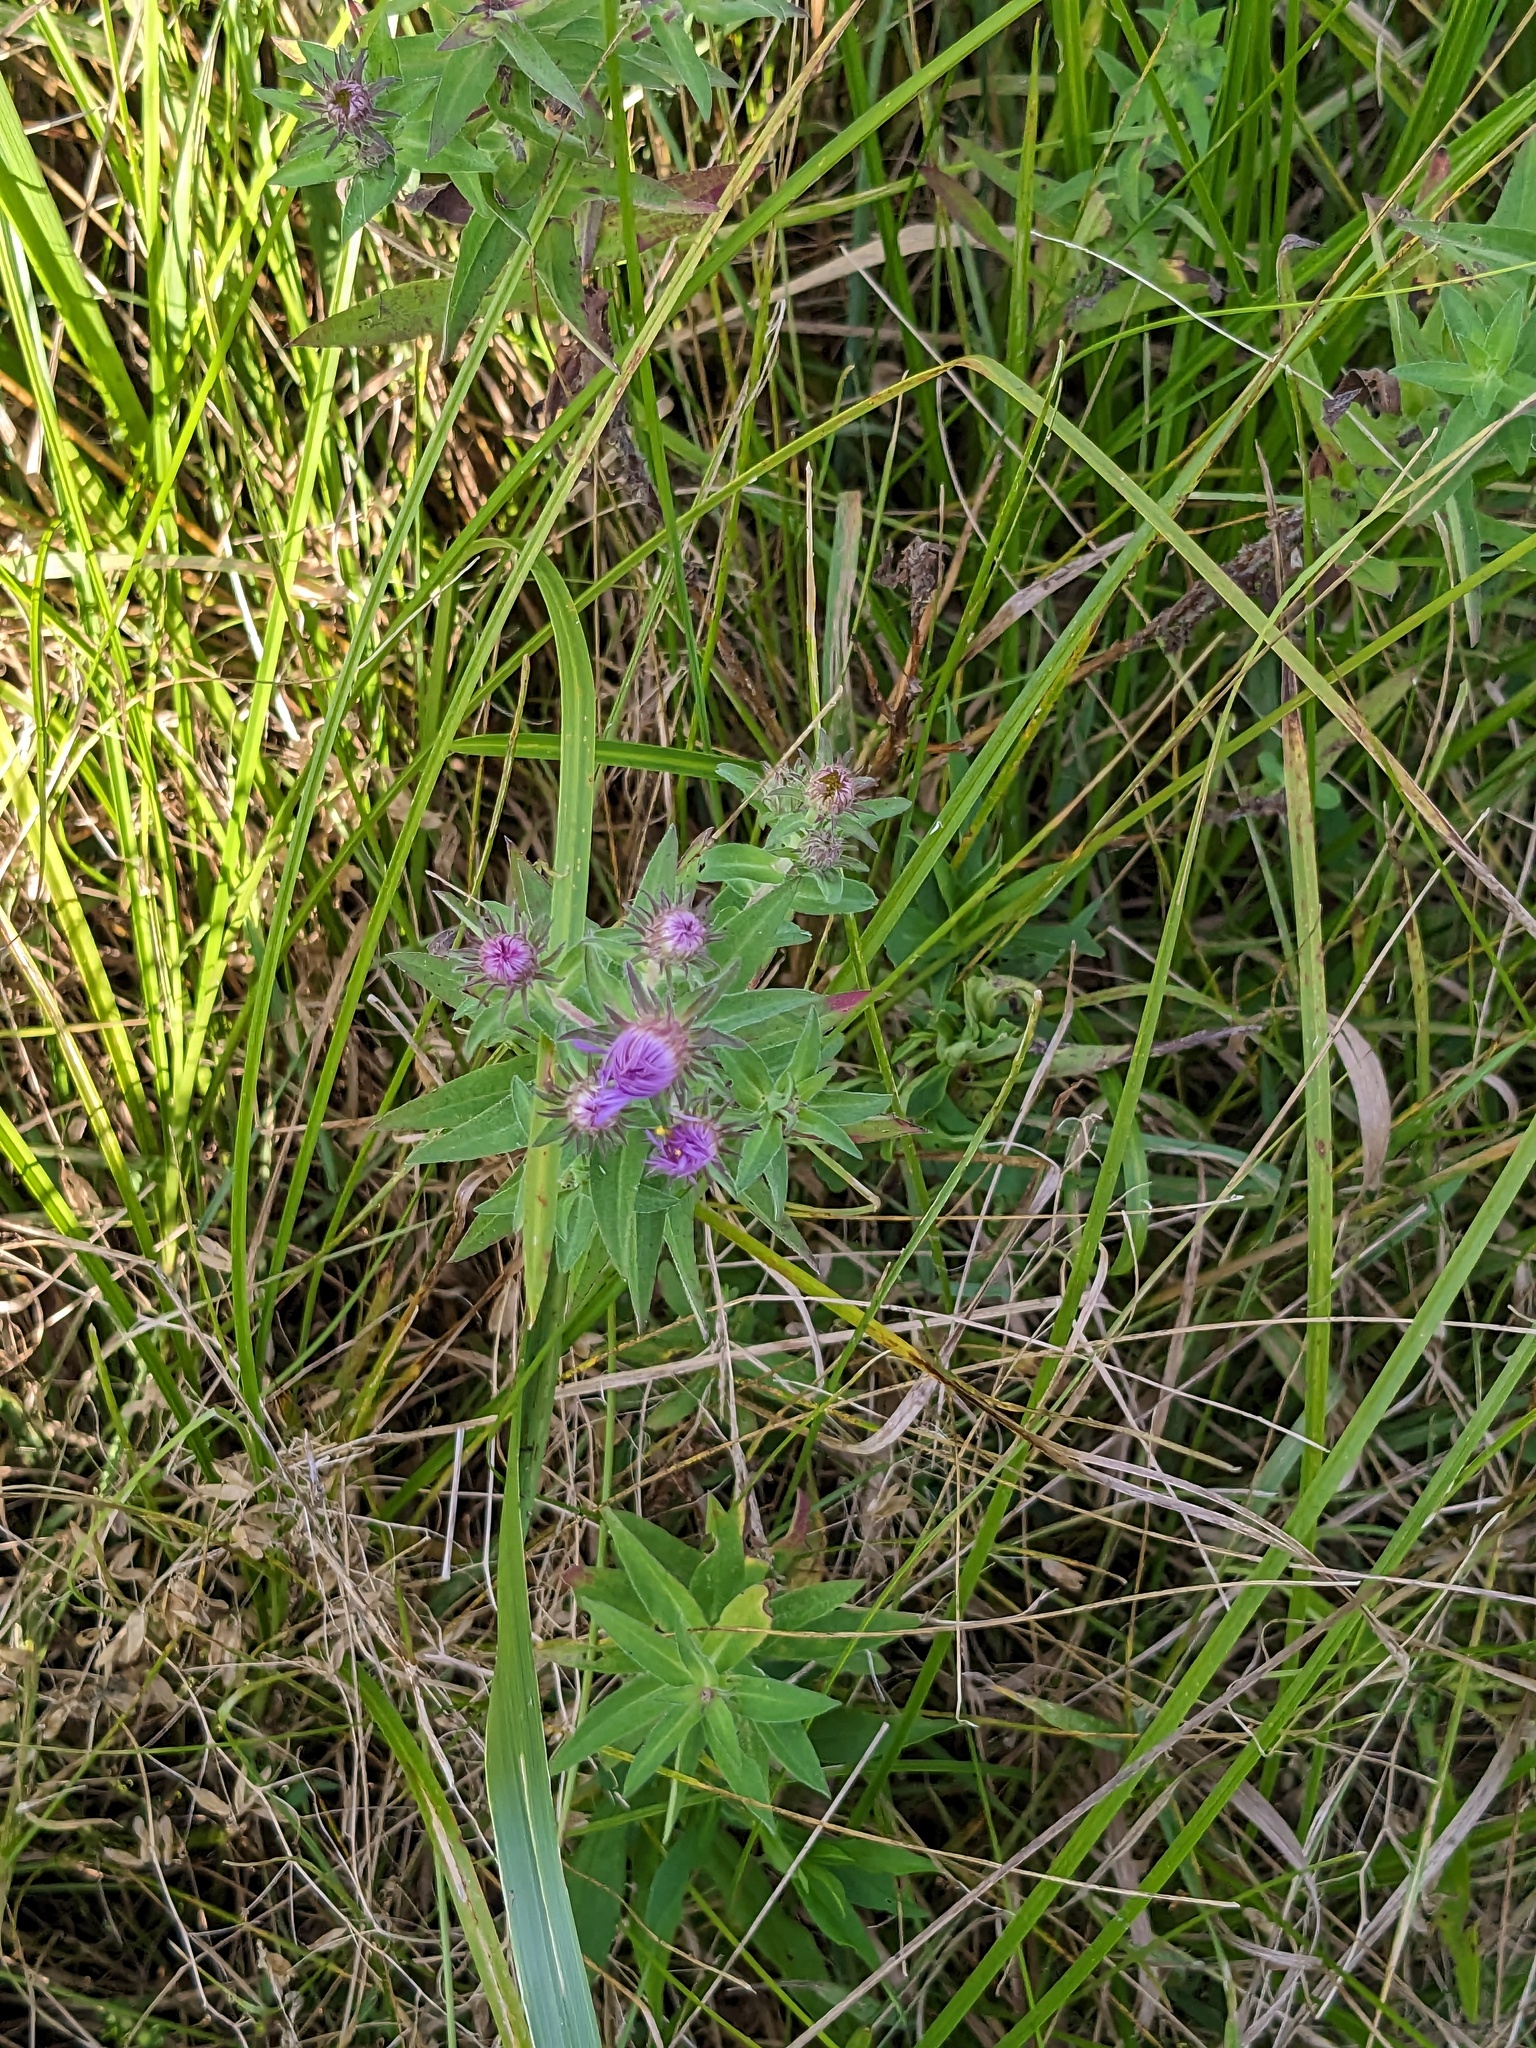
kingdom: Plantae
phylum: Tracheophyta
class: Magnoliopsida
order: Asterales
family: Asteraceae
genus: Symphyotrichum
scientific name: Symphyotrichum novae-angliae
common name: Michaelmas daisy
